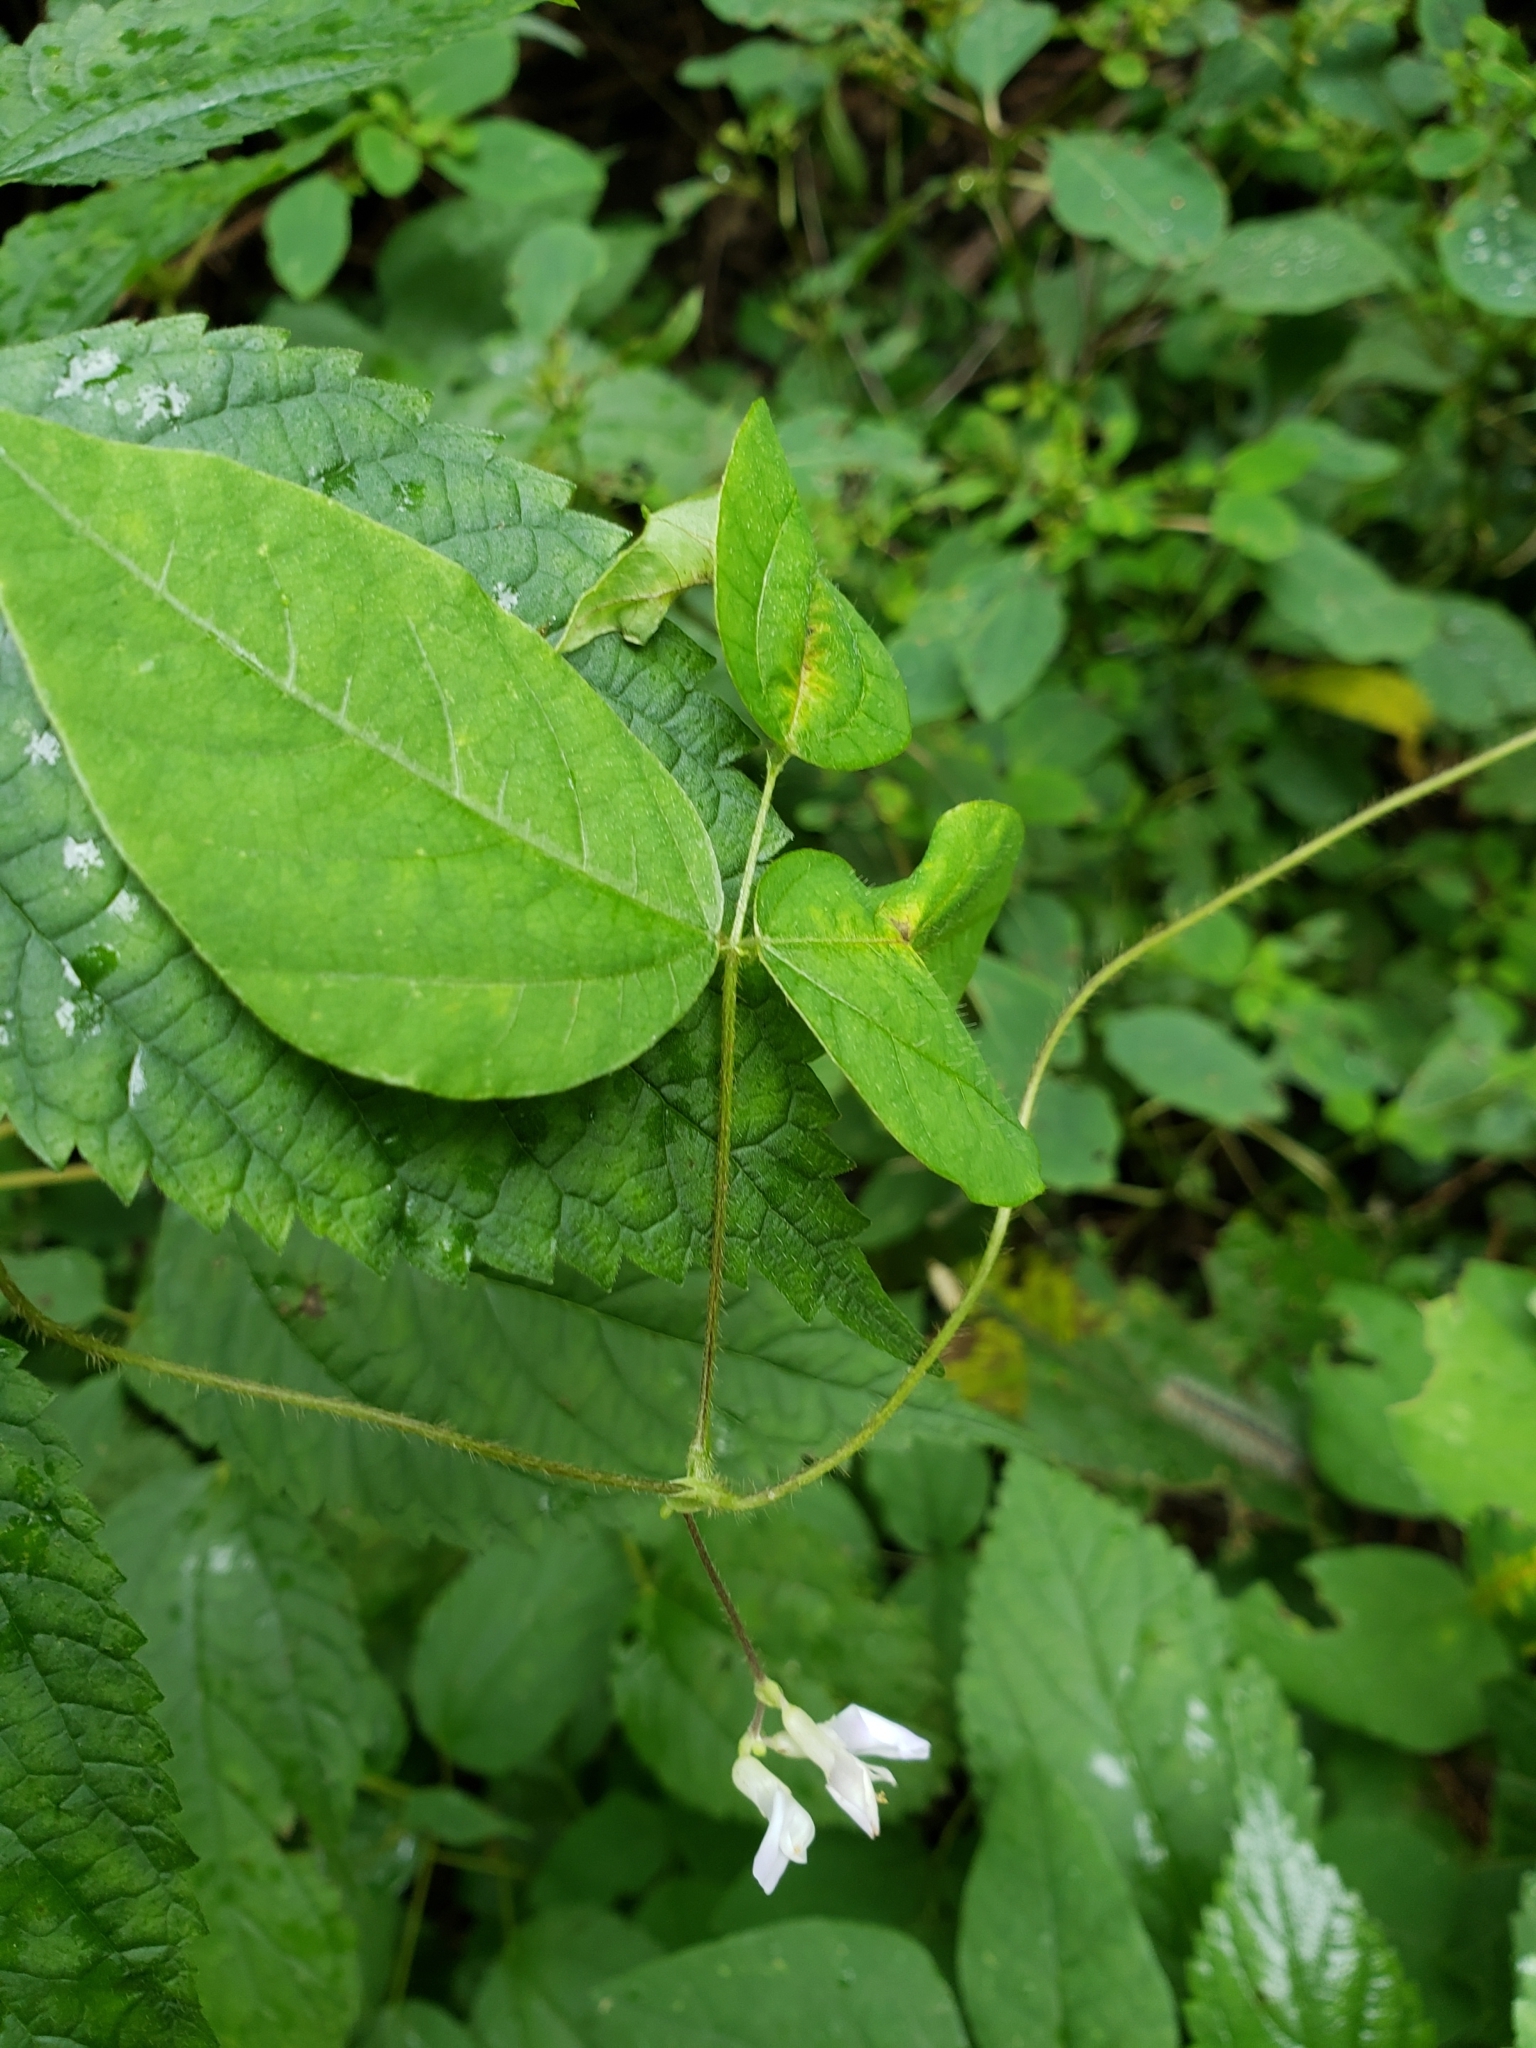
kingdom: Plantae
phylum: Tracheophyta
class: Magnoliopsida
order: Fabales
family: Fabaceae
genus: Amphicarpaea
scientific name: Amphicarpaea bracteata
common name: American hog peanut
